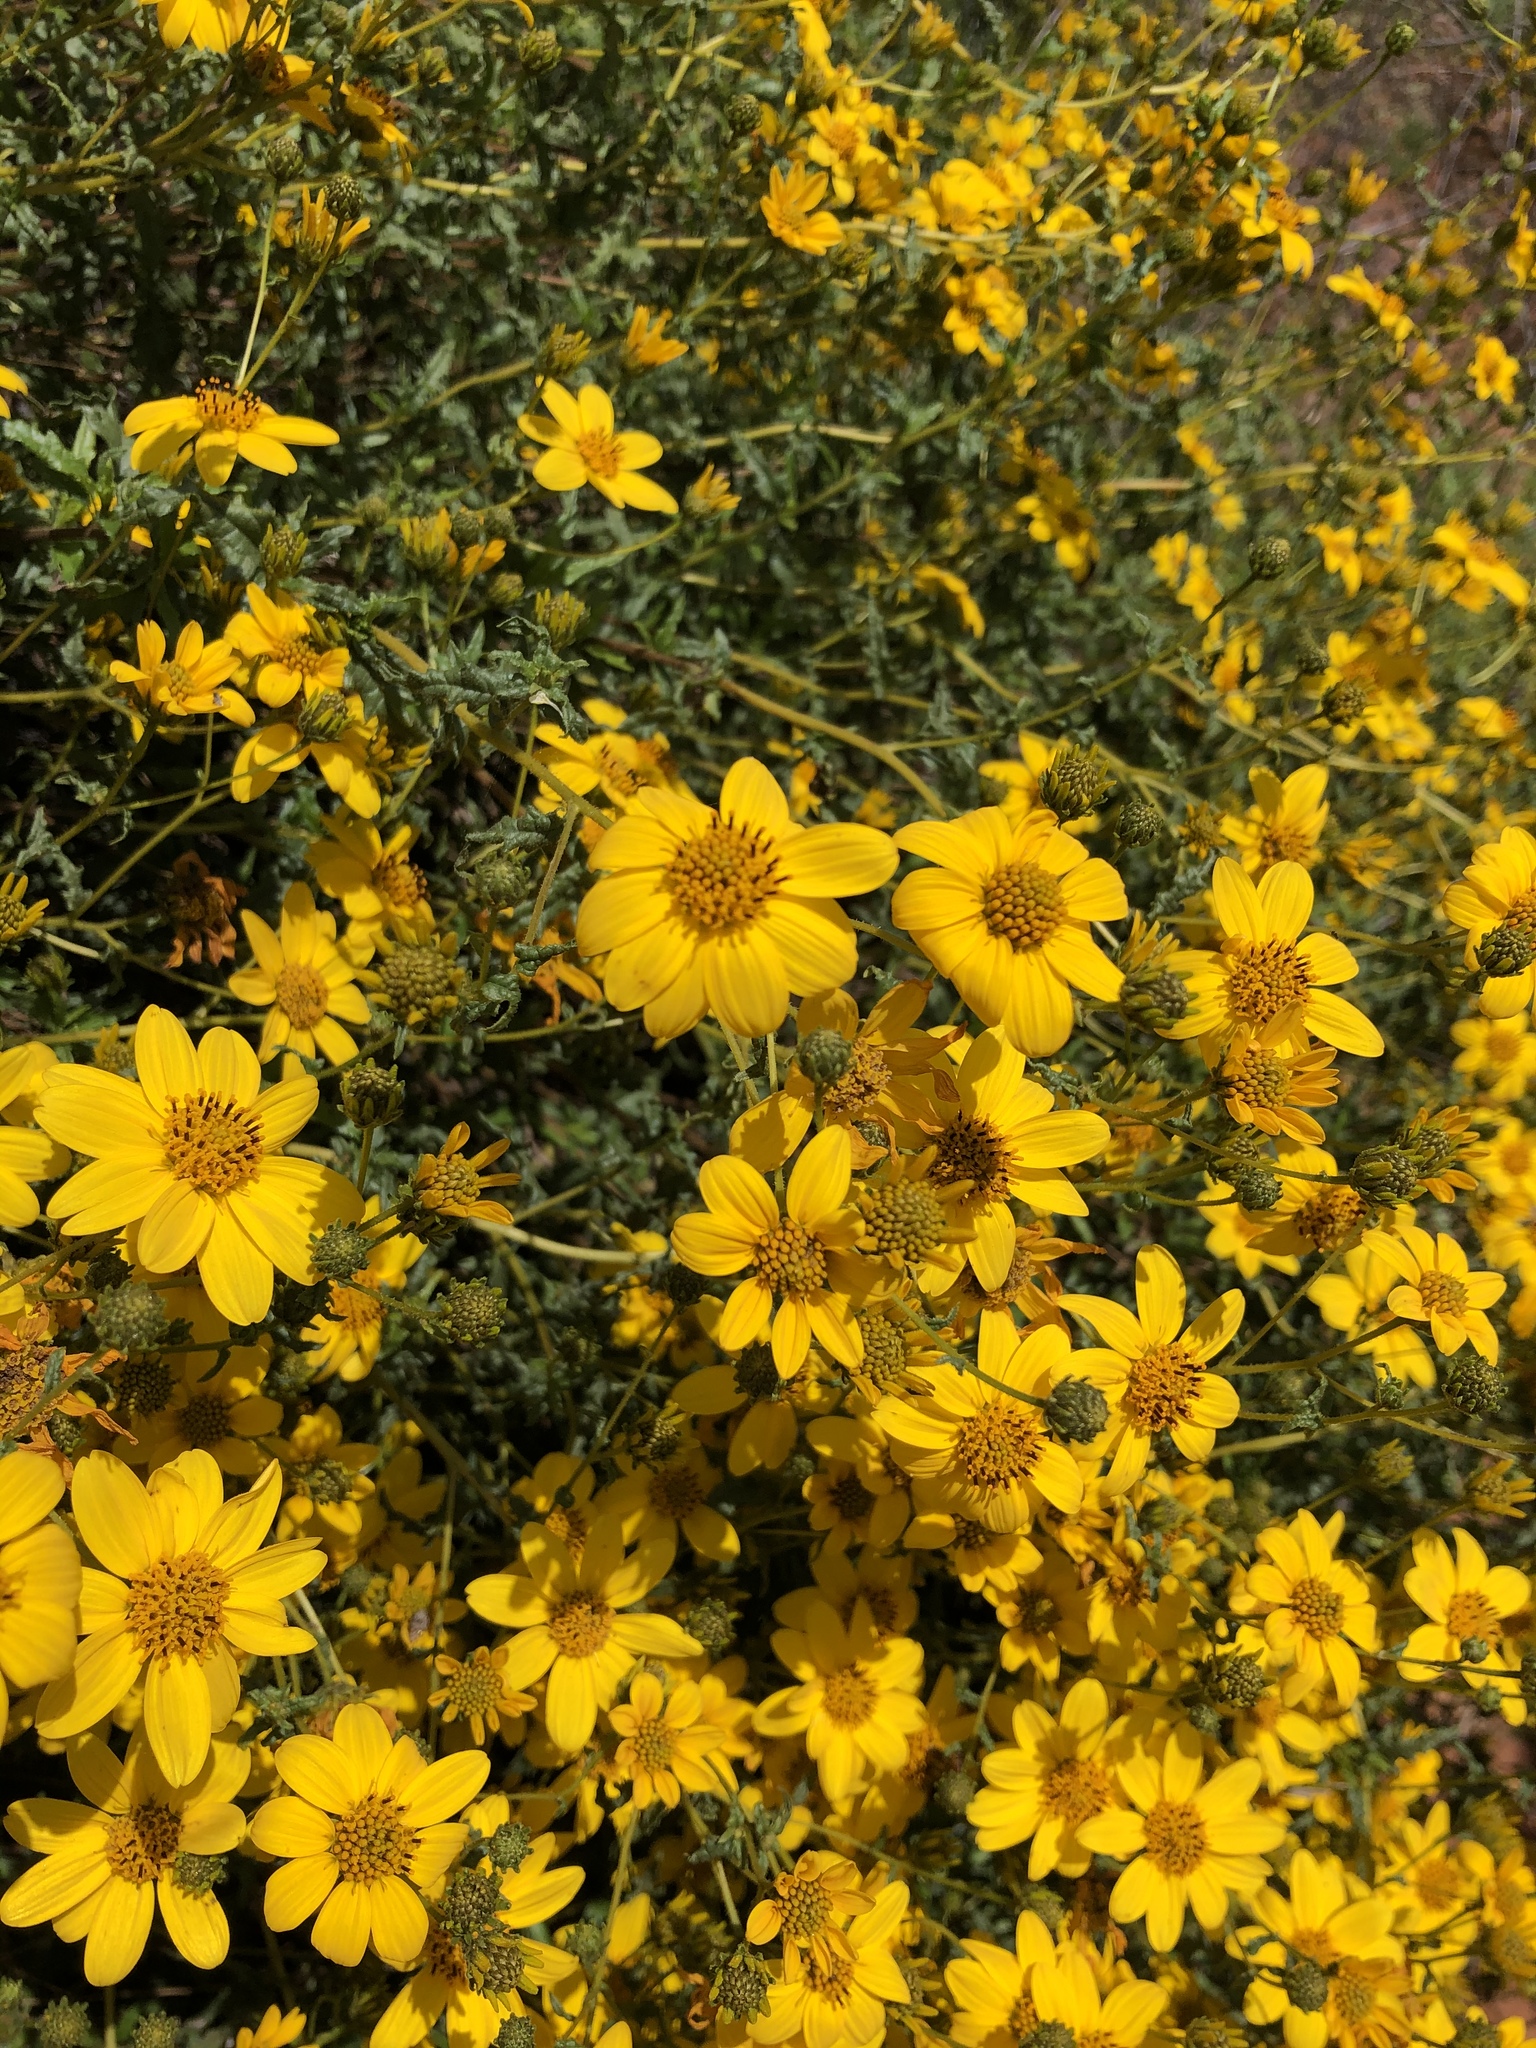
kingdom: Plantae
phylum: Tracheophyta
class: Magnoliopsida
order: Asterales
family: Asteraceae
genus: Bahiopsis
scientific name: Bahiopsis laciniata
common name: San diego county viguiera
